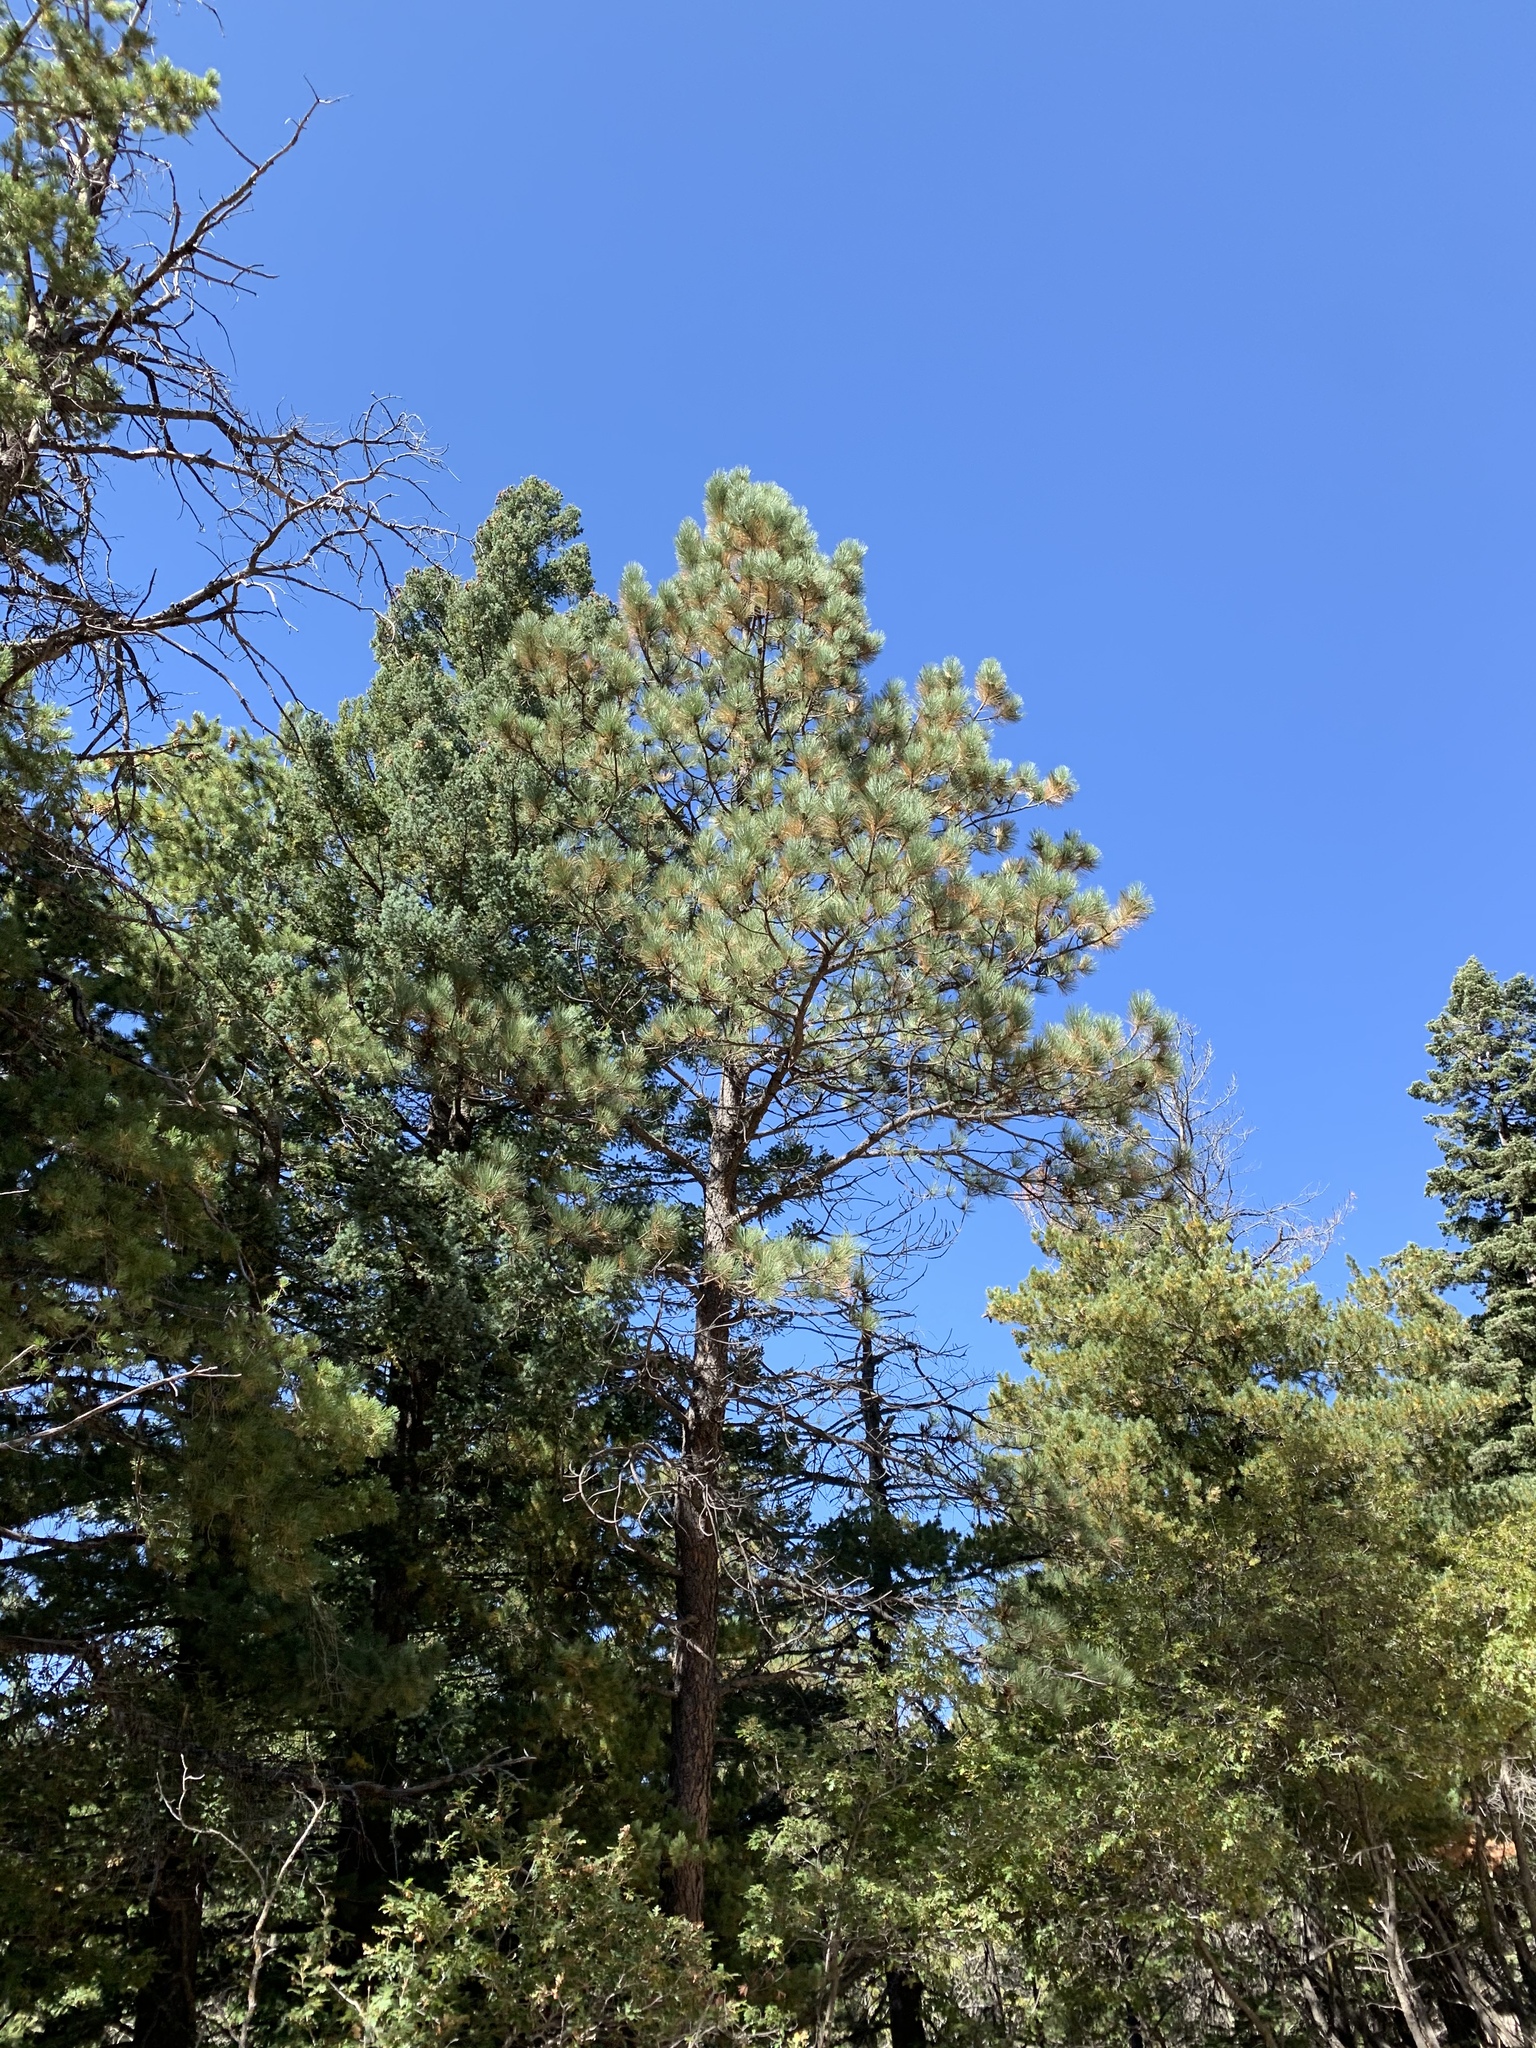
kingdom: Plantae
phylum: Tracheophyta
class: Pinopsida
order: Pinales
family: Pinaceae
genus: Pinus
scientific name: Pinus ponderosa
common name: Western yellow-pine
